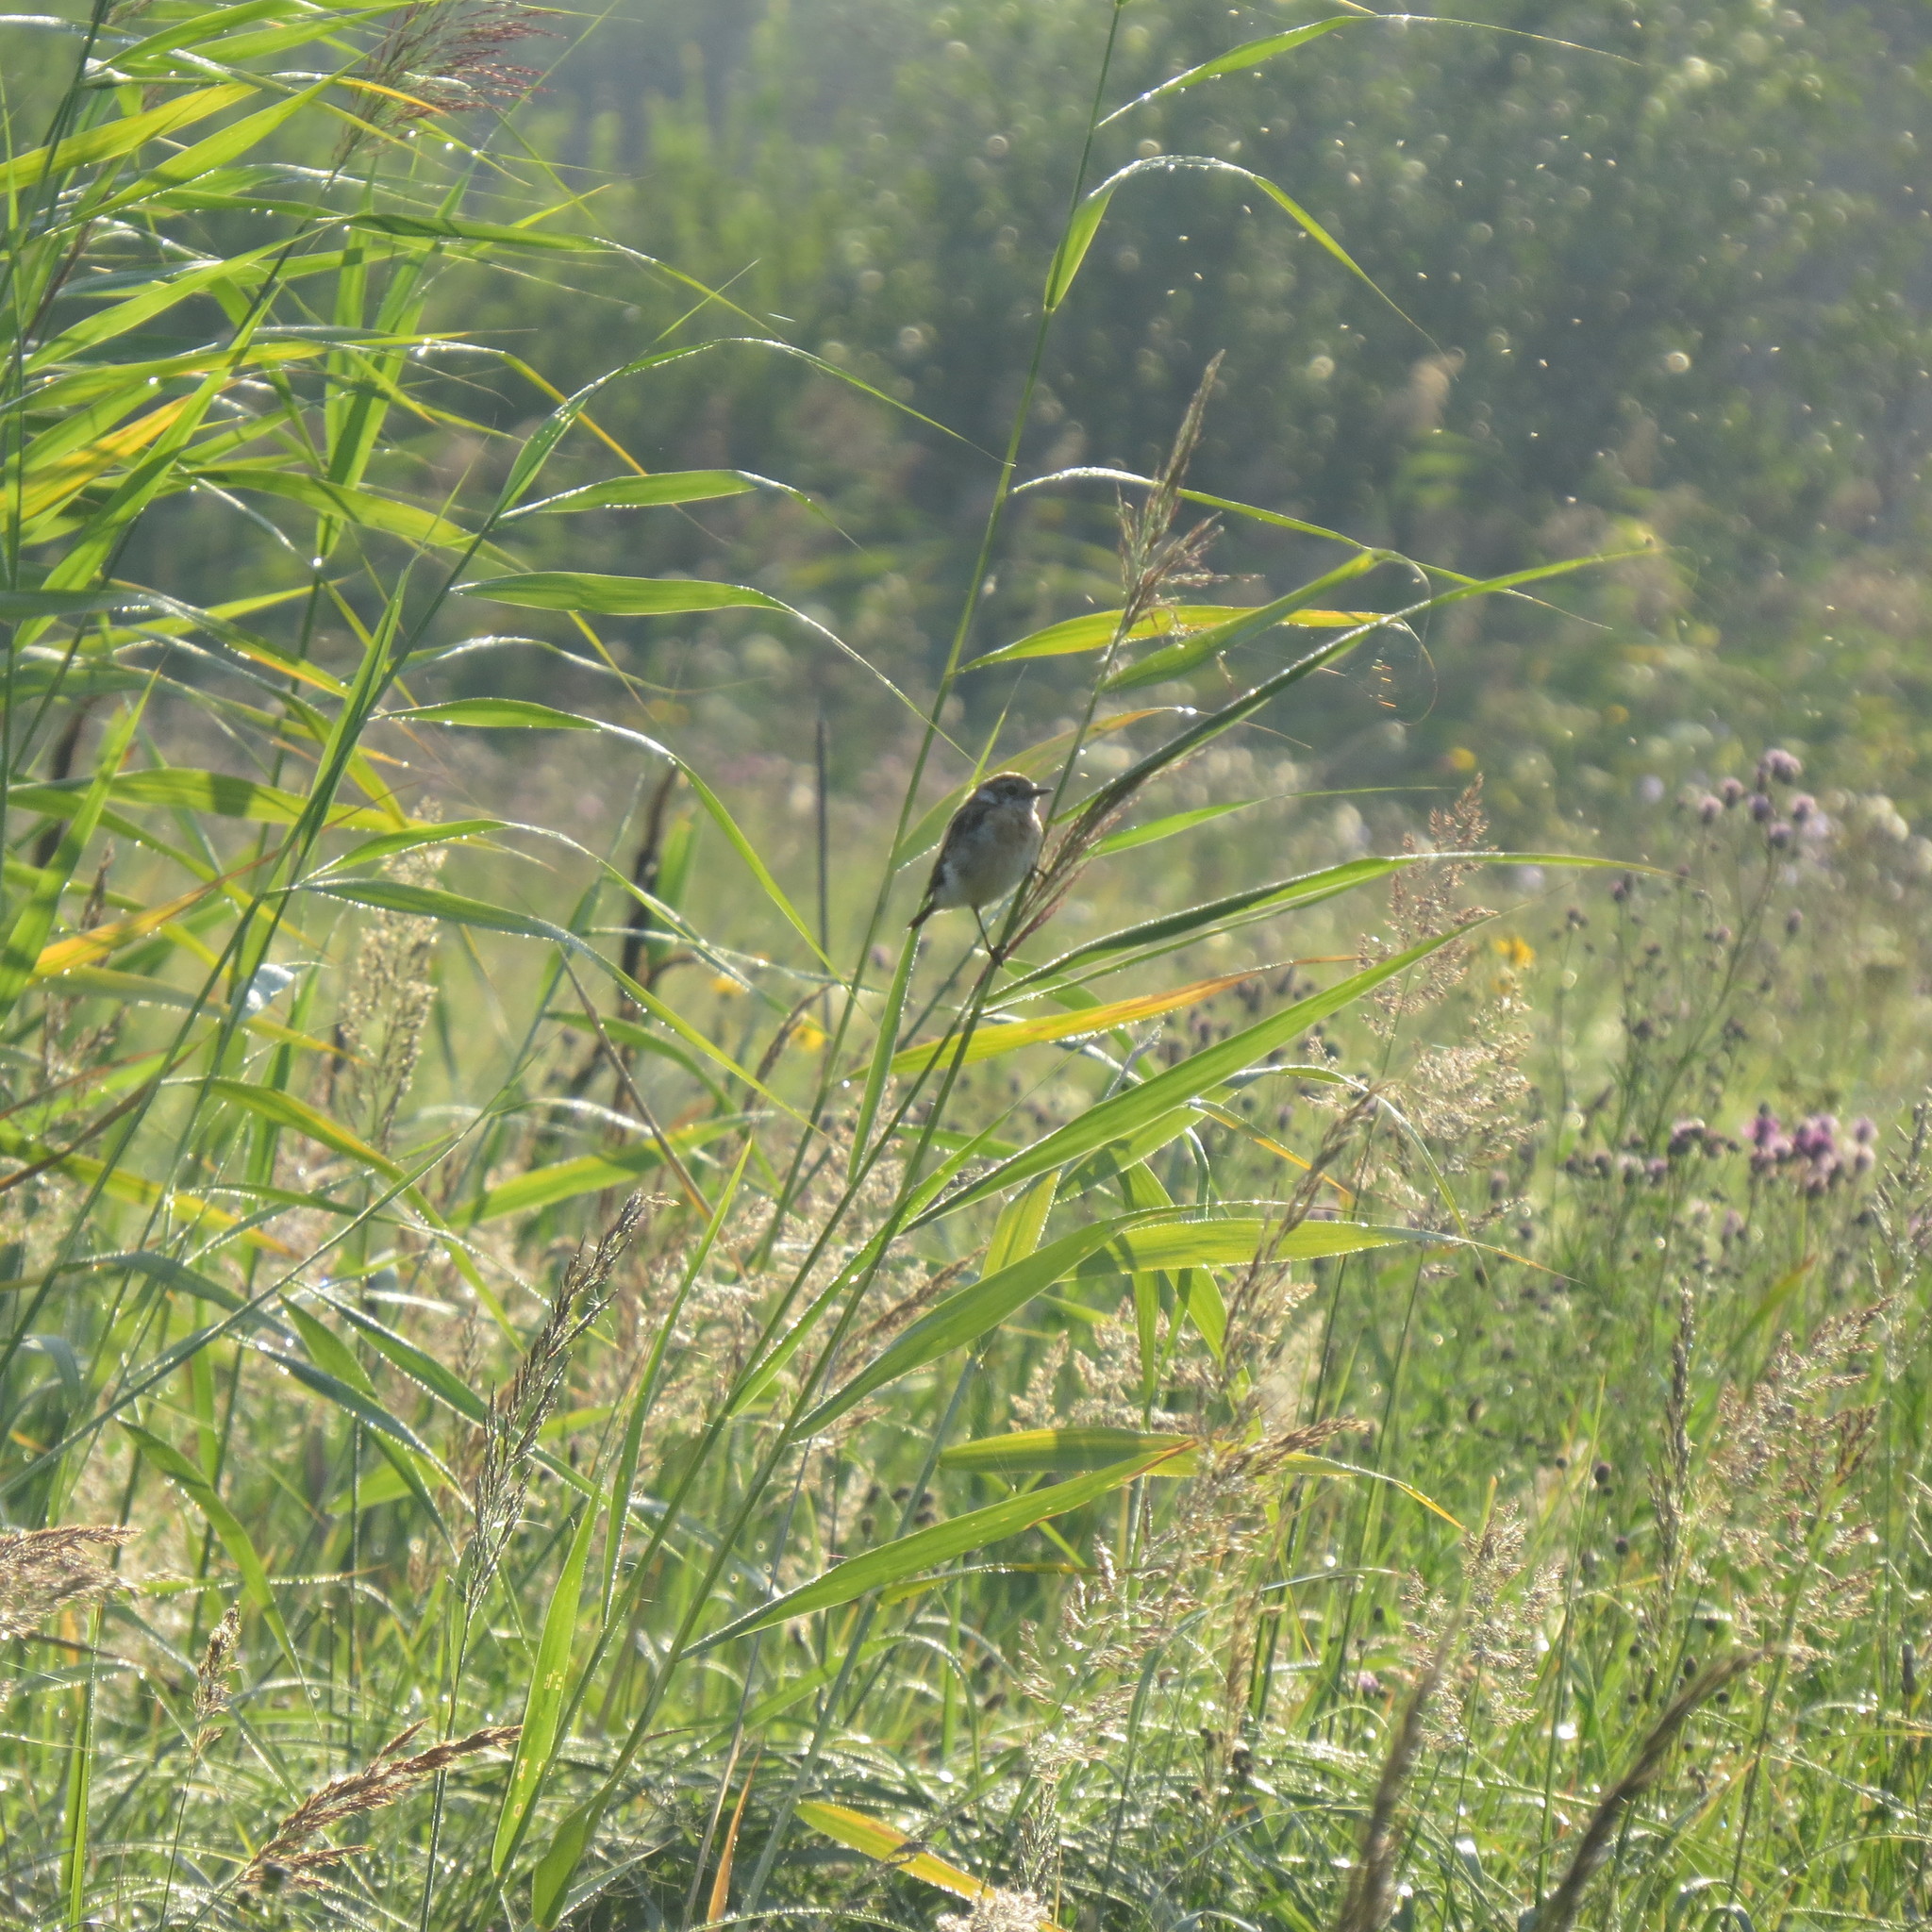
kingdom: Animalia
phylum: Chordata
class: Aves
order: Passeriformes
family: Muscicapidae
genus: Saxicola
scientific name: Saxicola maurus
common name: Siberian stonechat
